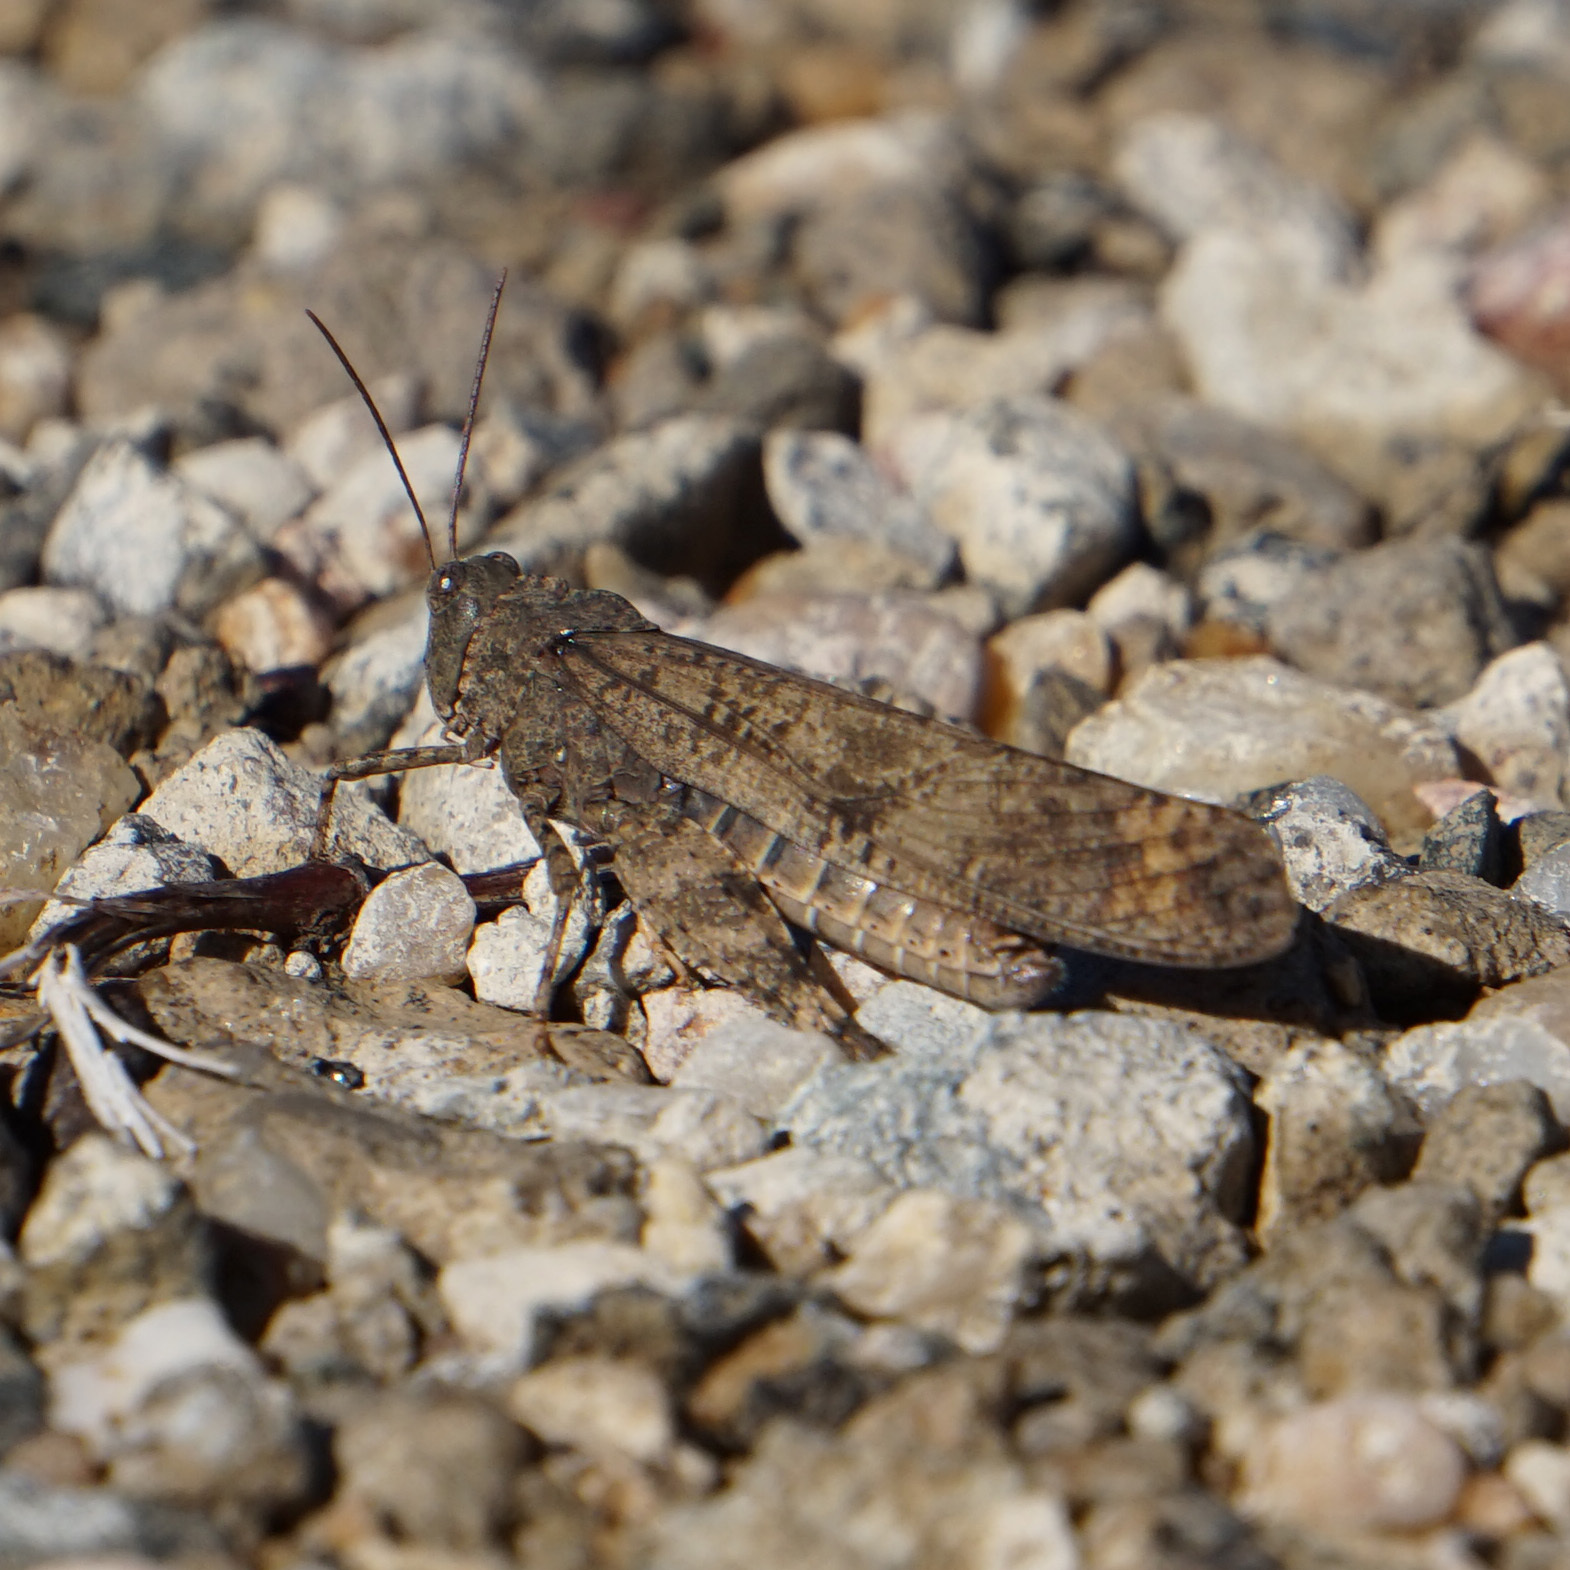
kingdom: Animalia
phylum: Arthropoda
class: Insecta
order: Orthoptera
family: Acrididae
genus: Dissosteira
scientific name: Dissosteira carolina
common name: Carolina grasshopper
